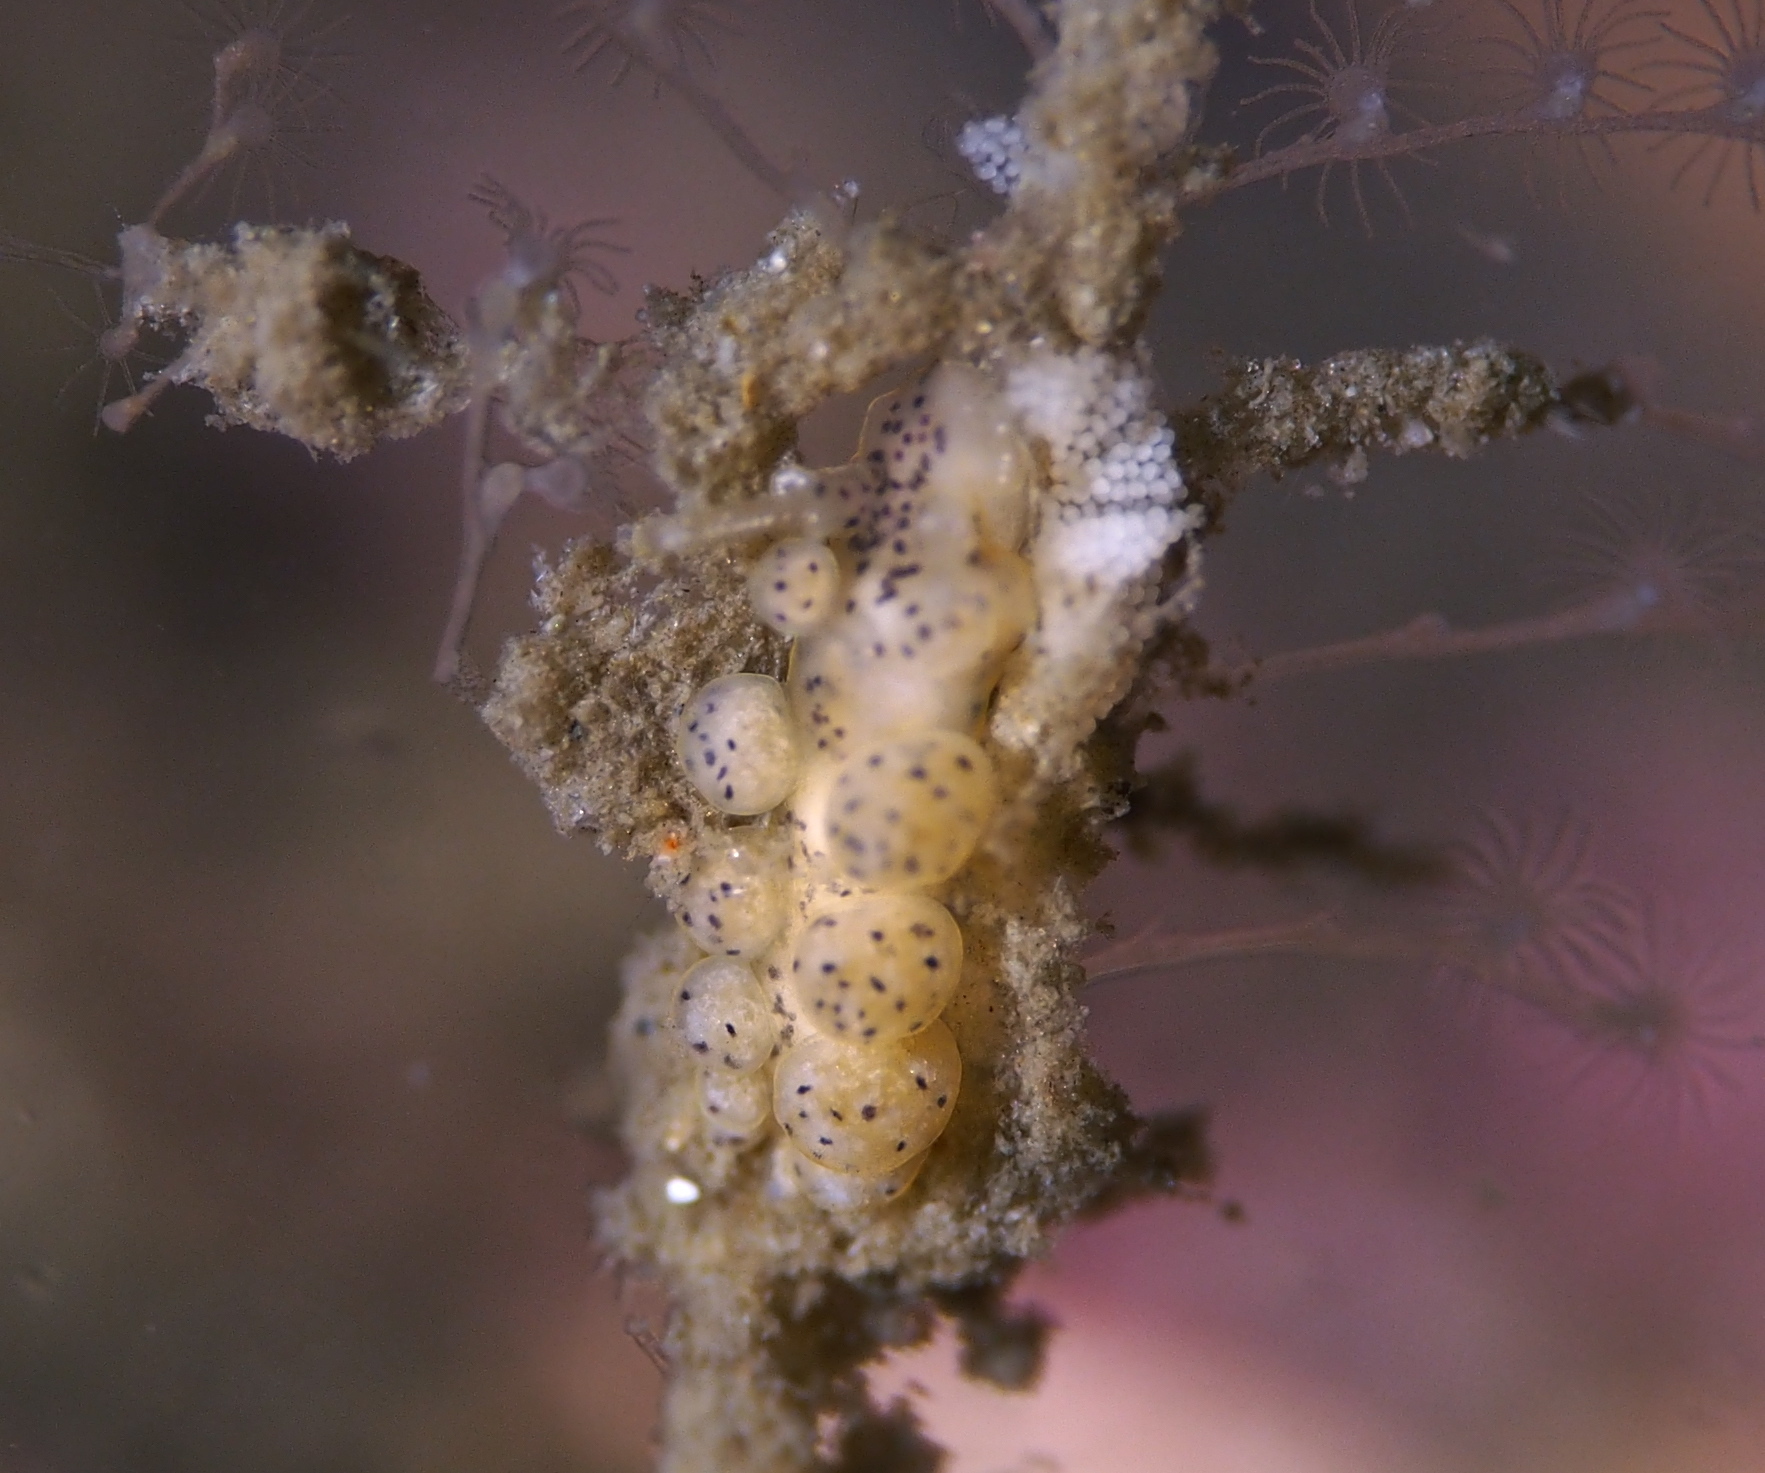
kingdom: Animalia
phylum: Mollusca
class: Gastropoda
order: Nudibranchia
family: Dotidae
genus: Doto
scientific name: Doto dunnei
